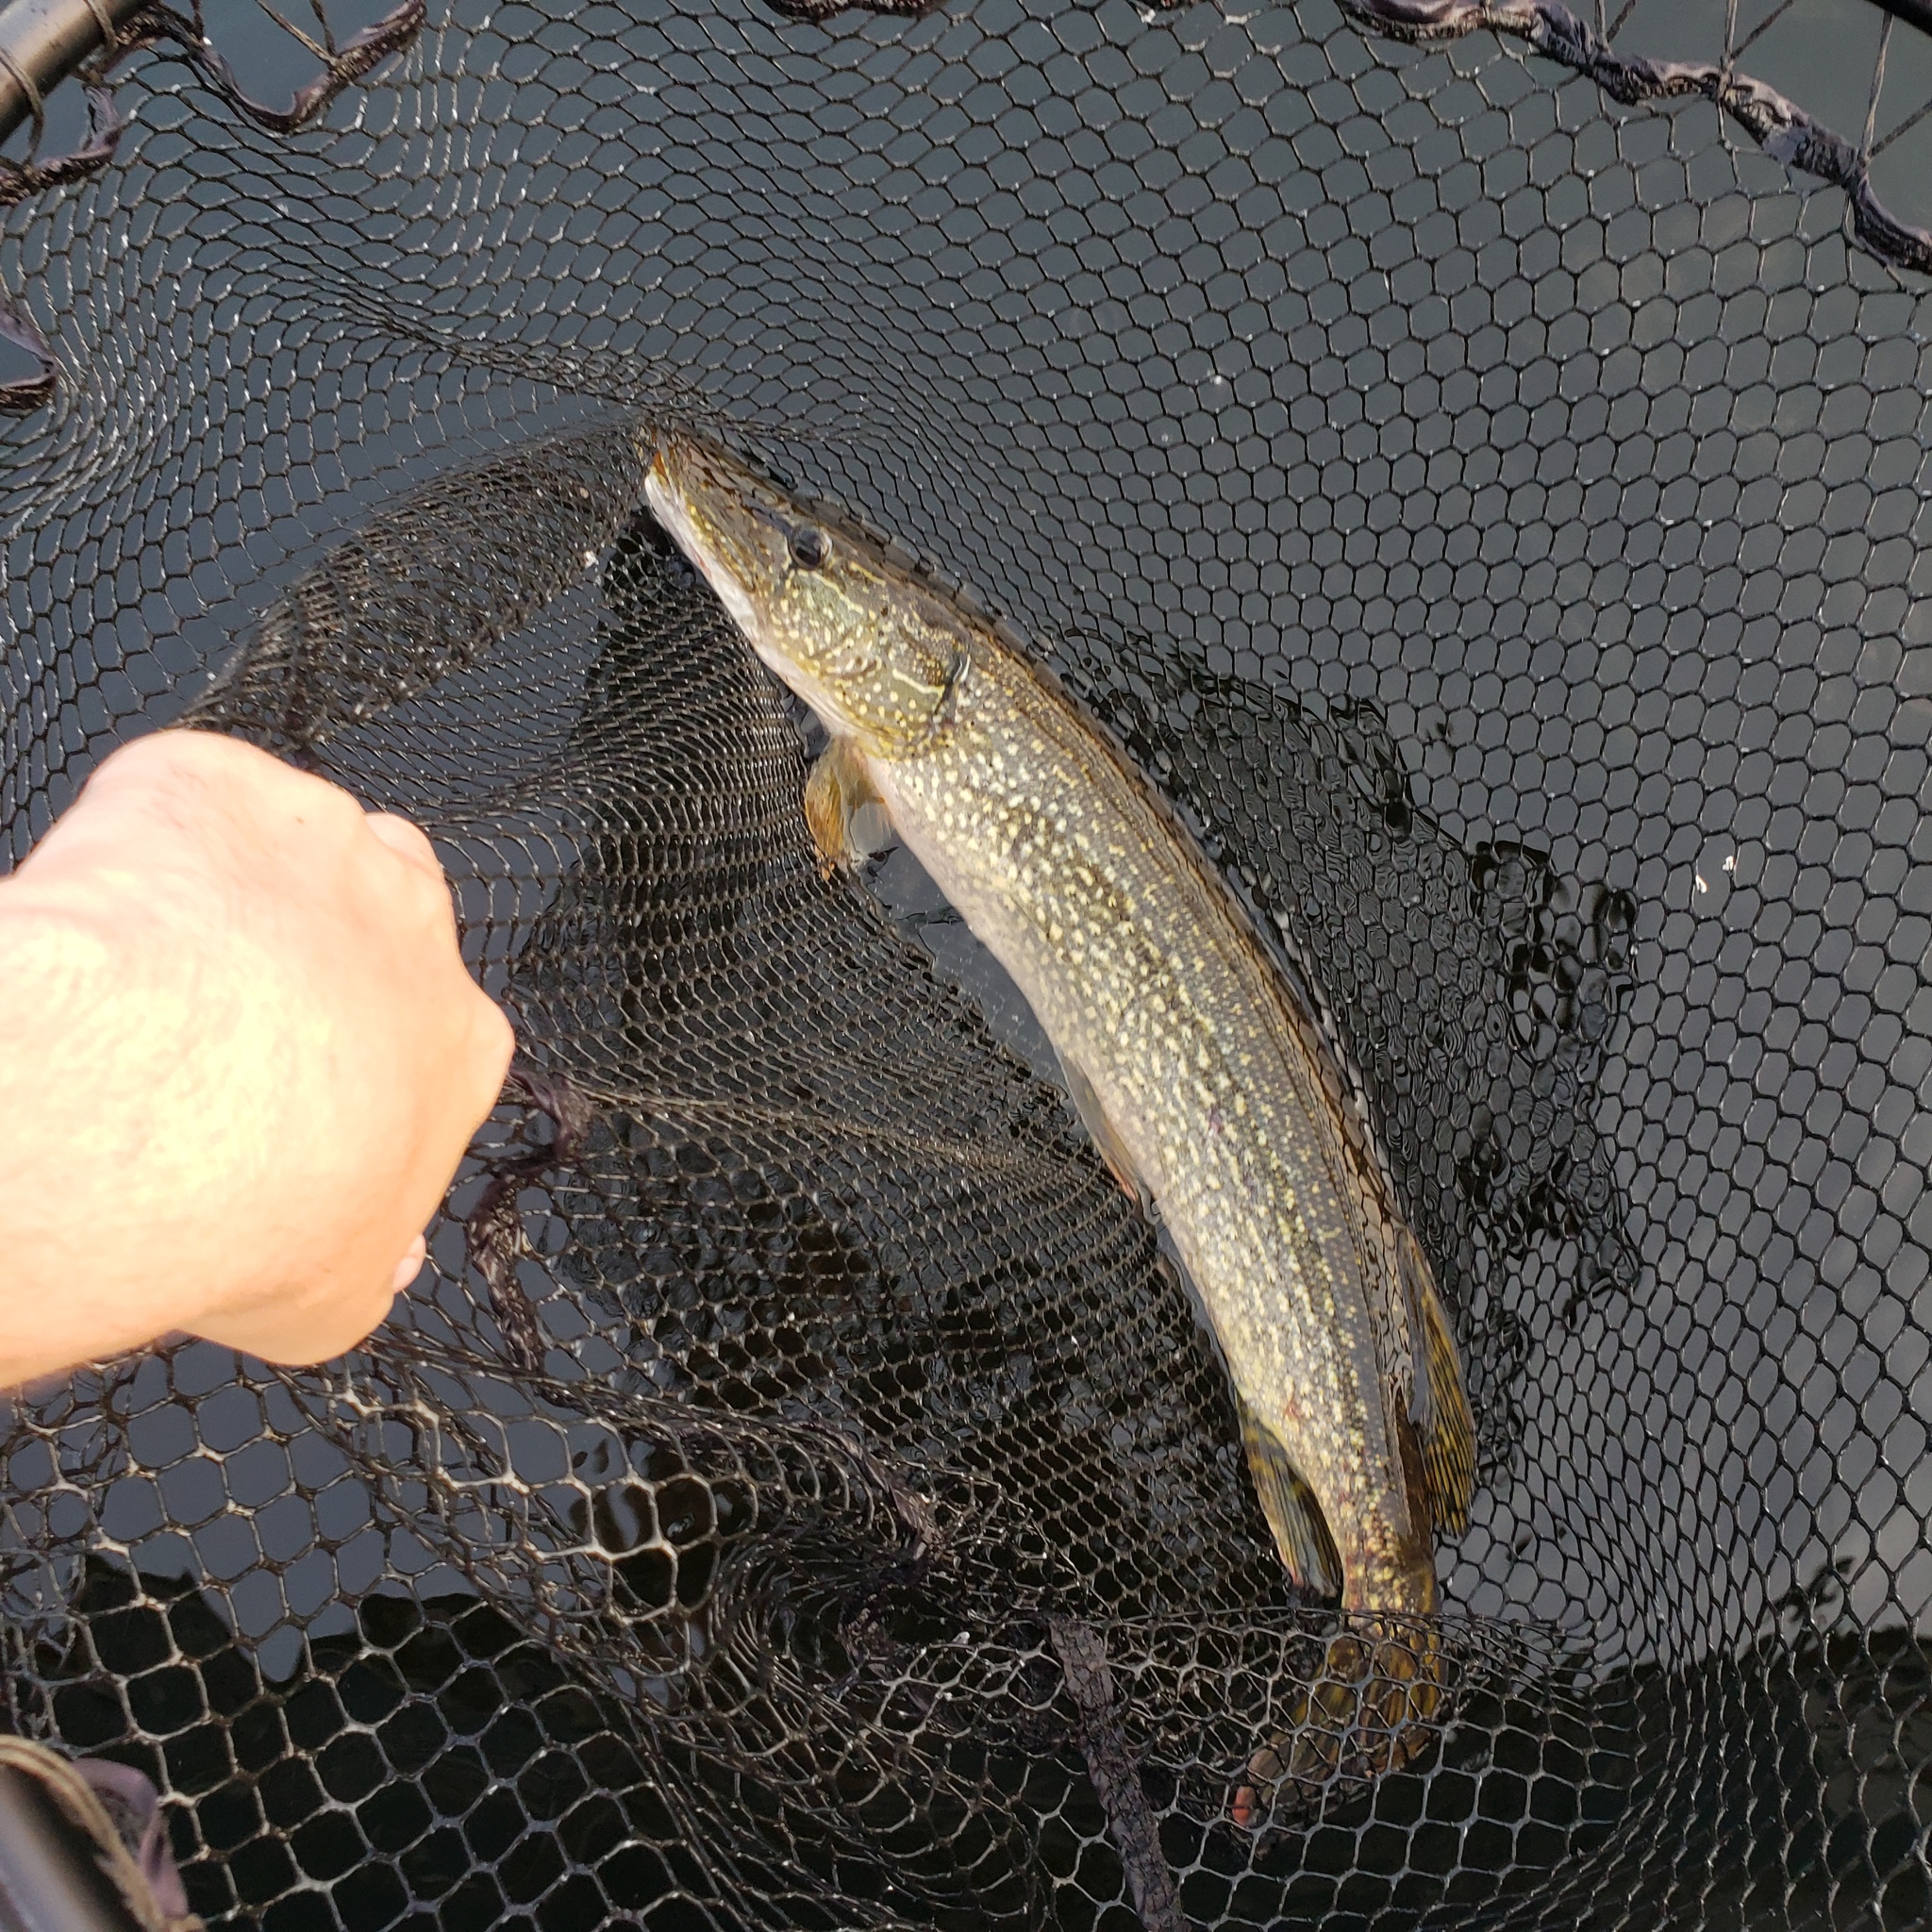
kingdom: Animalia
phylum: Chordata
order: Esociformes
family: Esocidae
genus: Esox
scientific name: Esox lucius
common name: Northern pike
